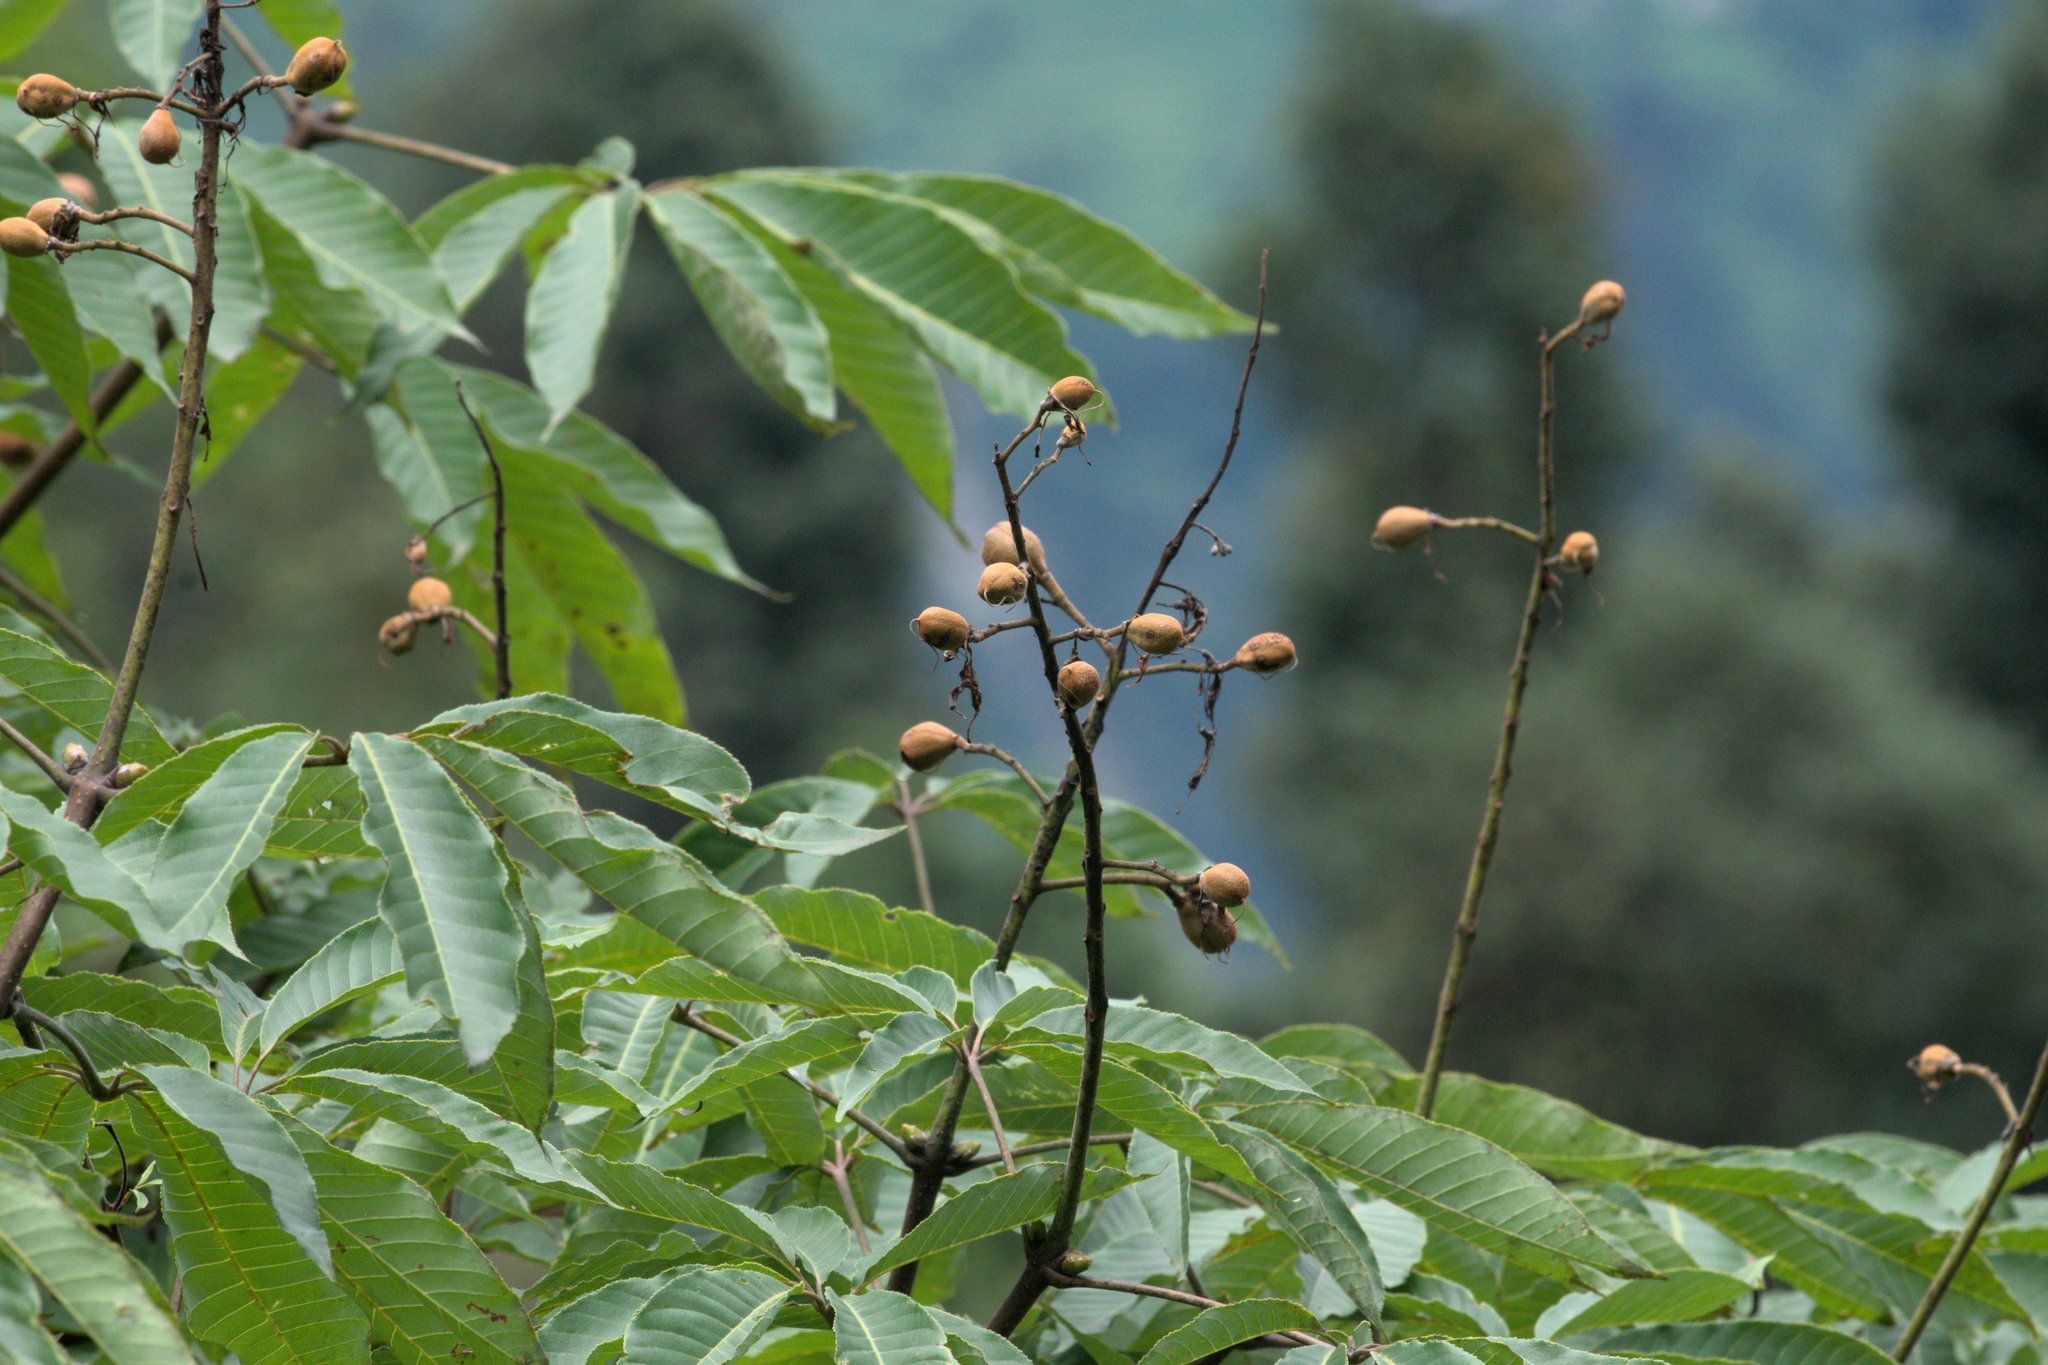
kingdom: Plantae
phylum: Tracheophyta
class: Magnoliopsida
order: Sapindales
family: Sapindaceae
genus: Aesculus
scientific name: Aesculus indica
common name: Indian horse-chestnut
